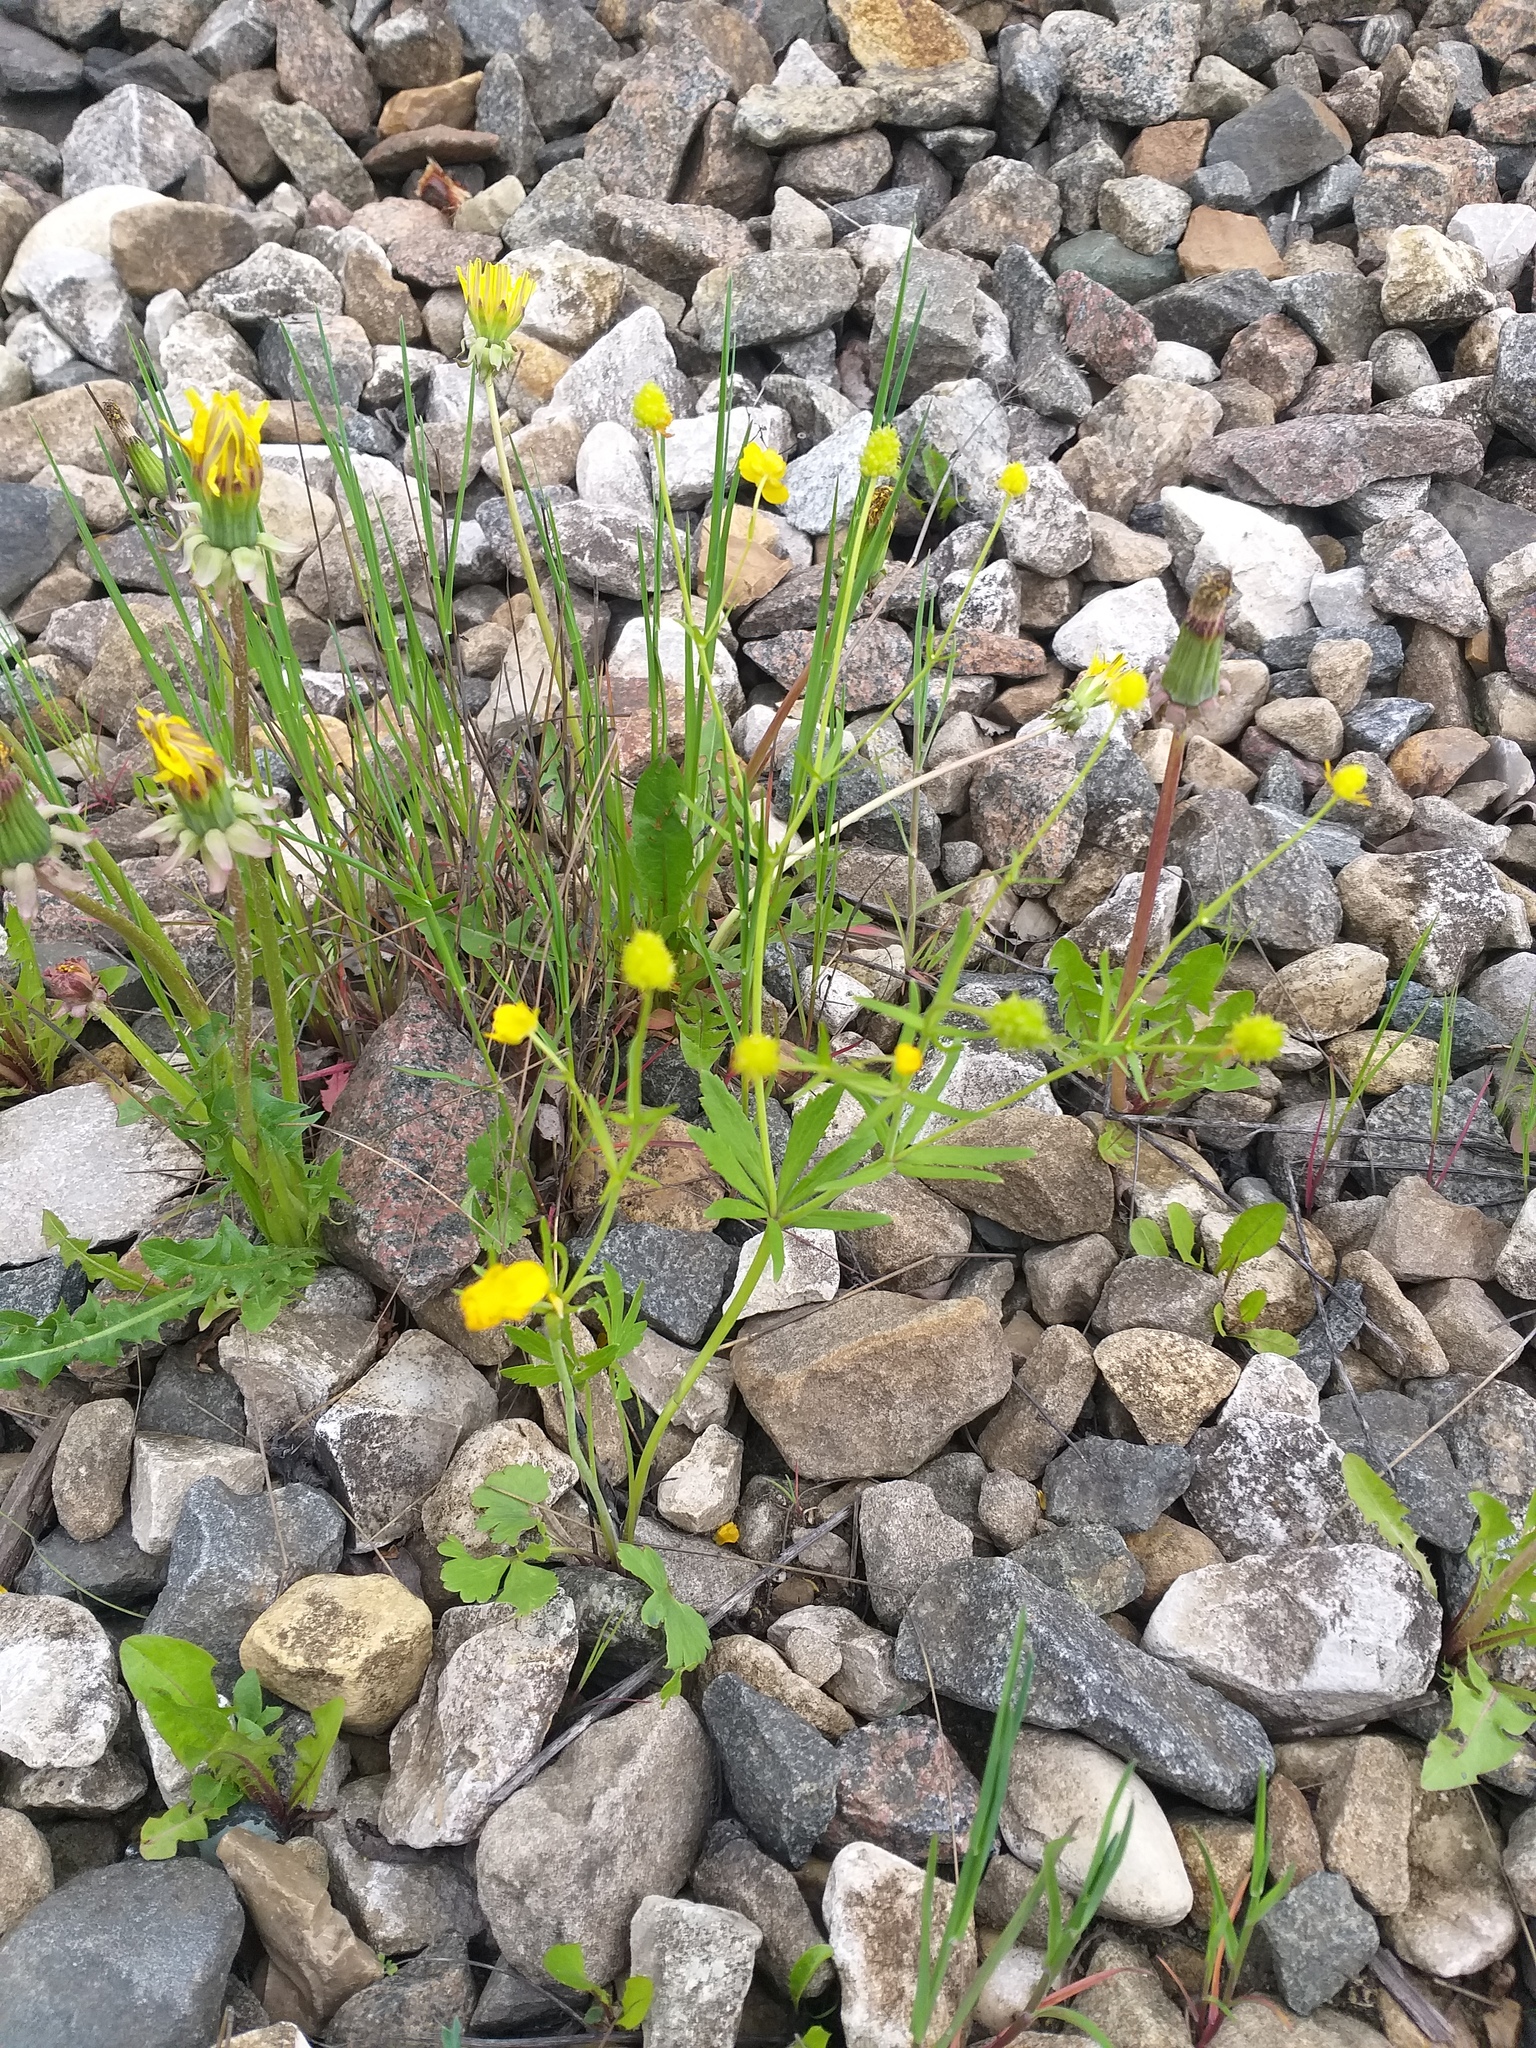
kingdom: Plantae
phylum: Tracheophyta
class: Magnoliopsida
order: Ranunculales
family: Ranunculaceae
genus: Ranunculus
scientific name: Ranunculus auricomus
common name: Goldilocks buttercup
